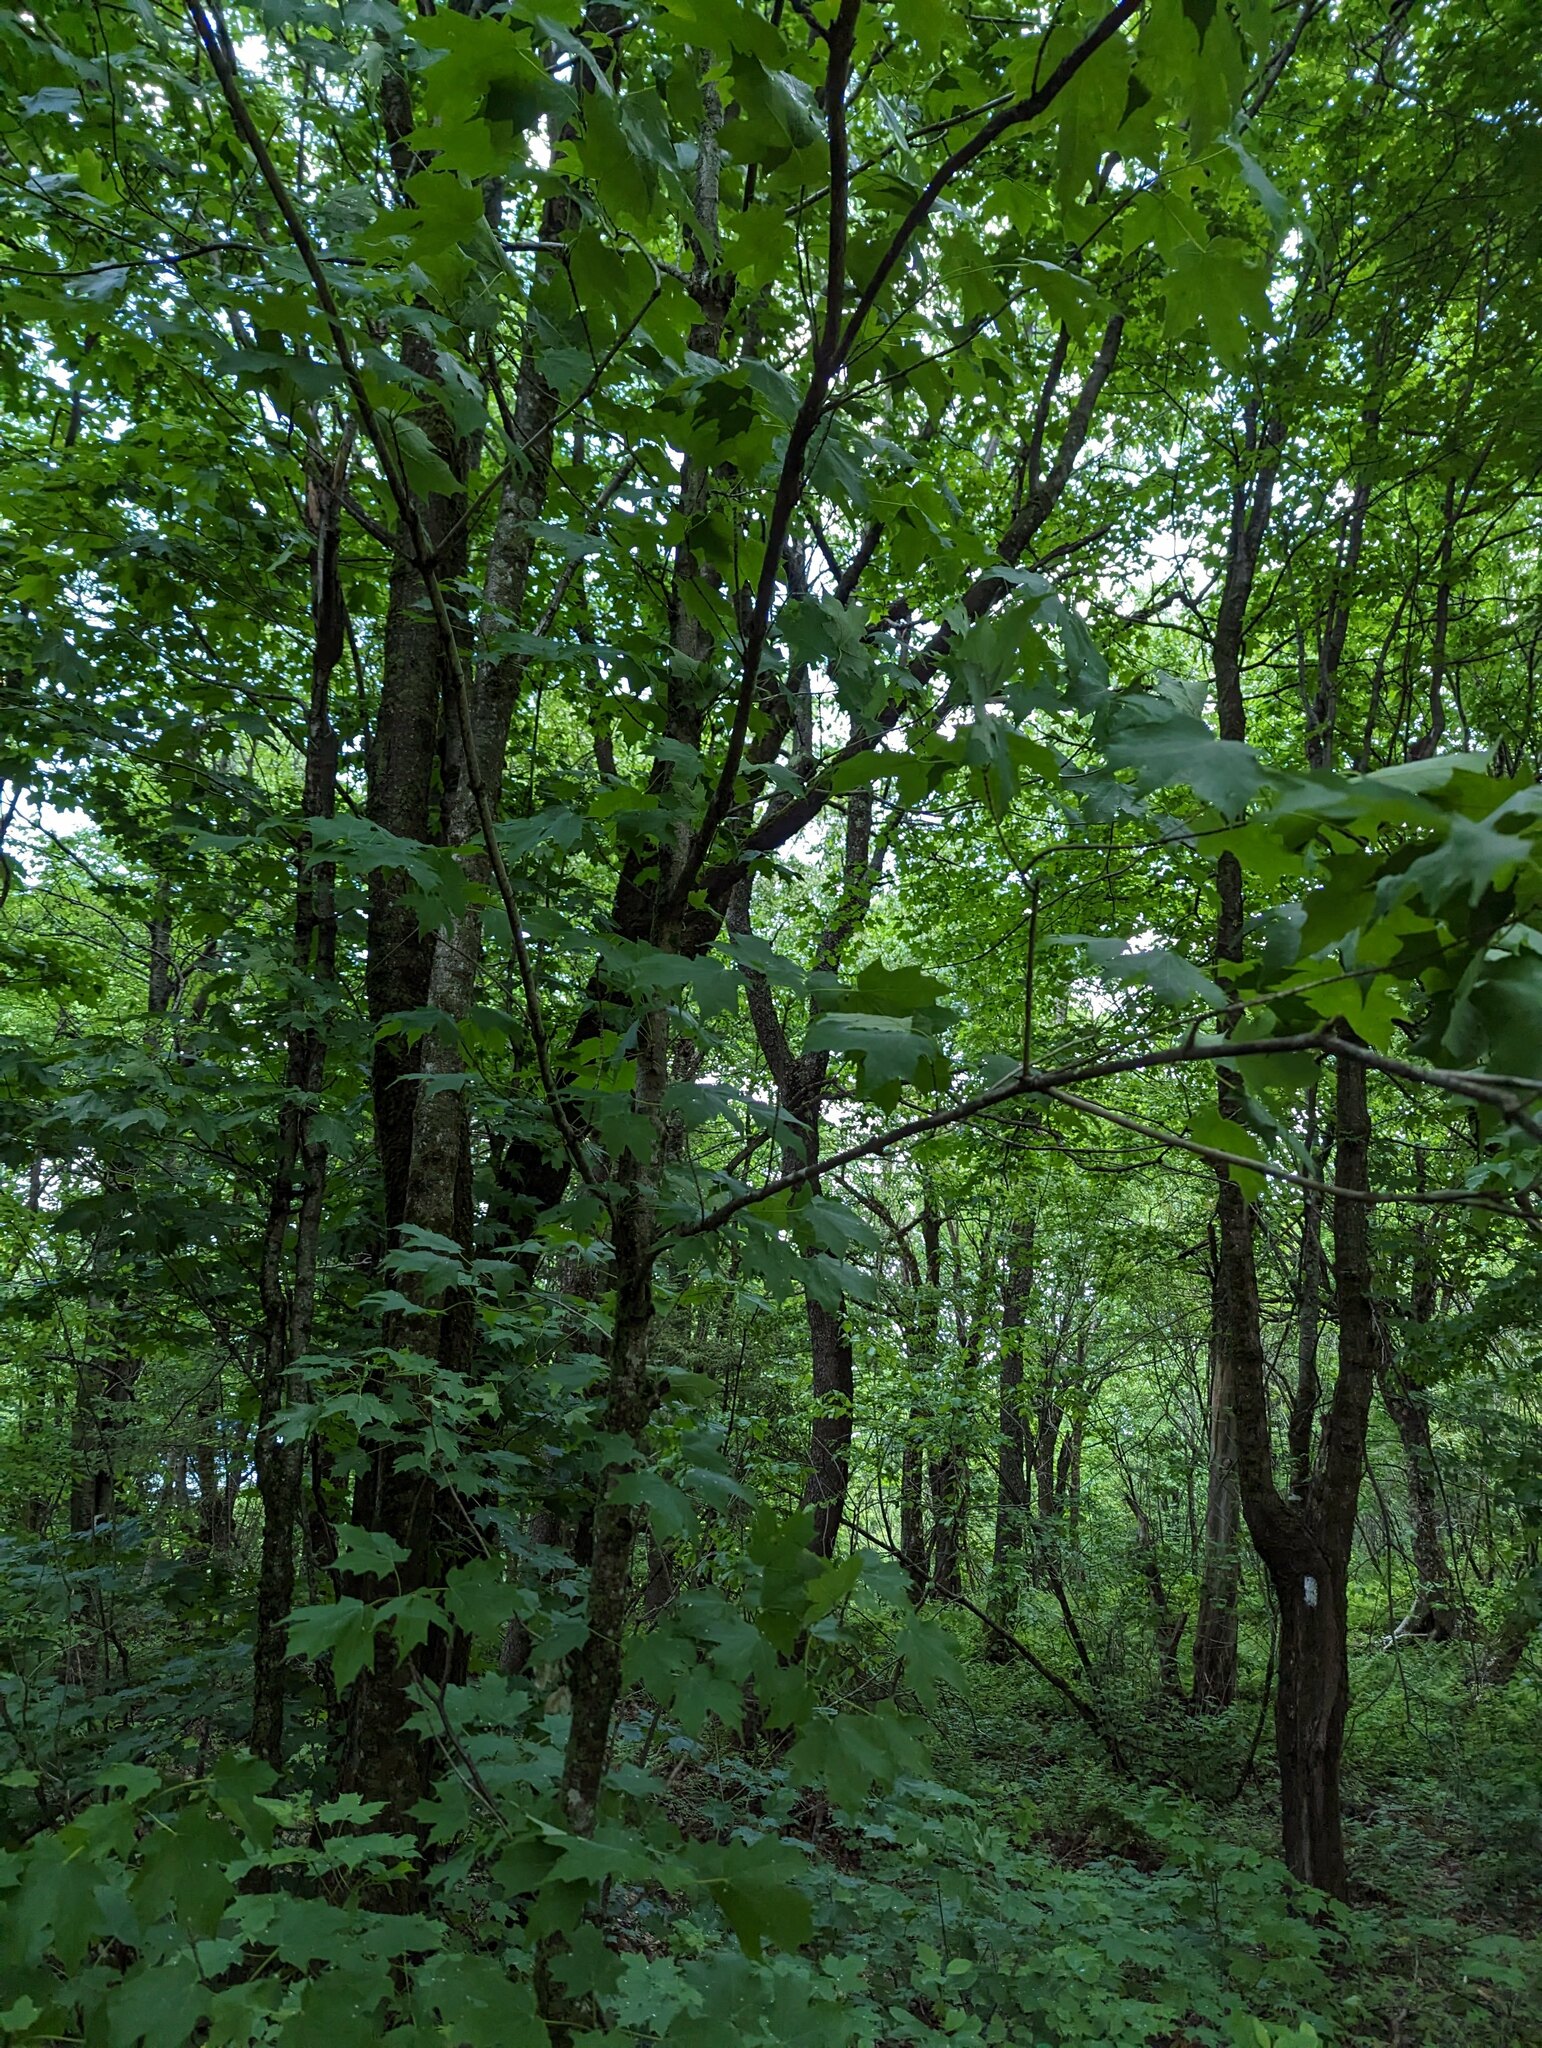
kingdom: Plantae
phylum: Tracheophyta
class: Magnoliopsida
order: Sapindales
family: Sapindaceae
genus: Acer
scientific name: Acer saccharum
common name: Sugar maple
